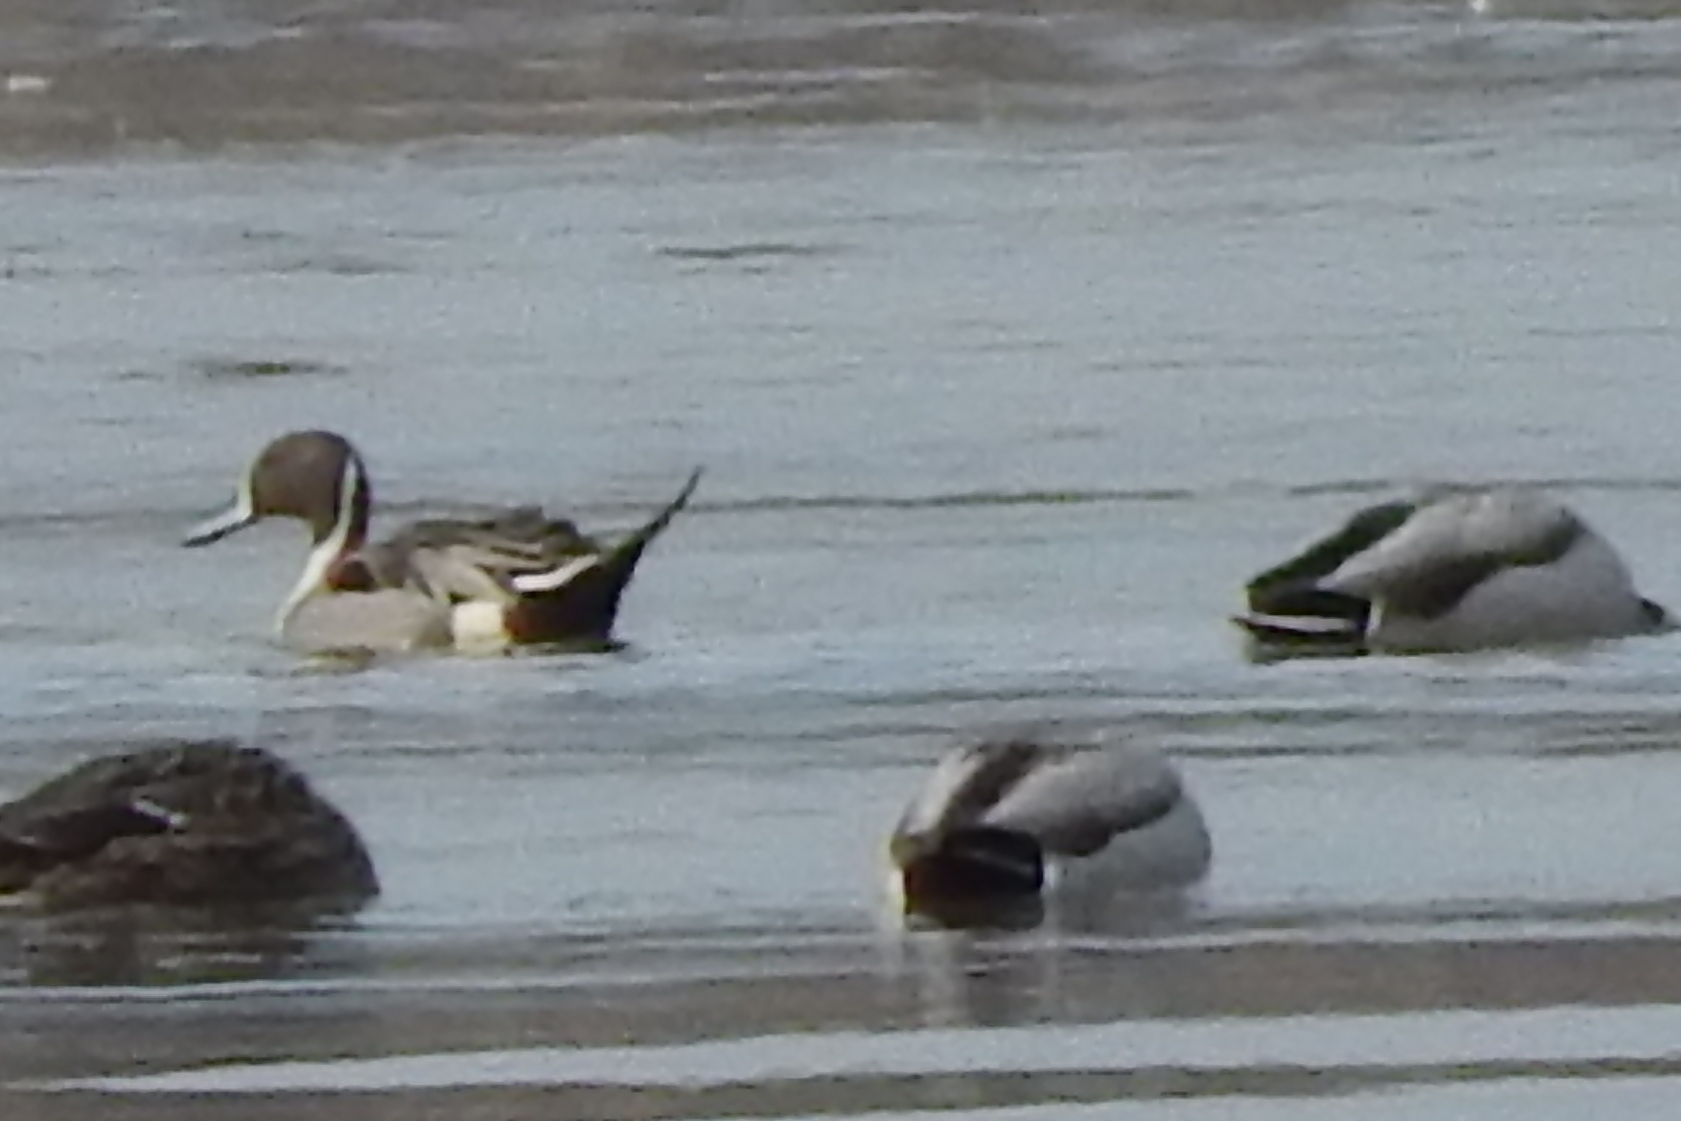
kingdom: Animalia
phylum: Chordata
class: Aves
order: Anseriformes
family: Anatidae
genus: Anas
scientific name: Anas acuta
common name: Northern pintail
